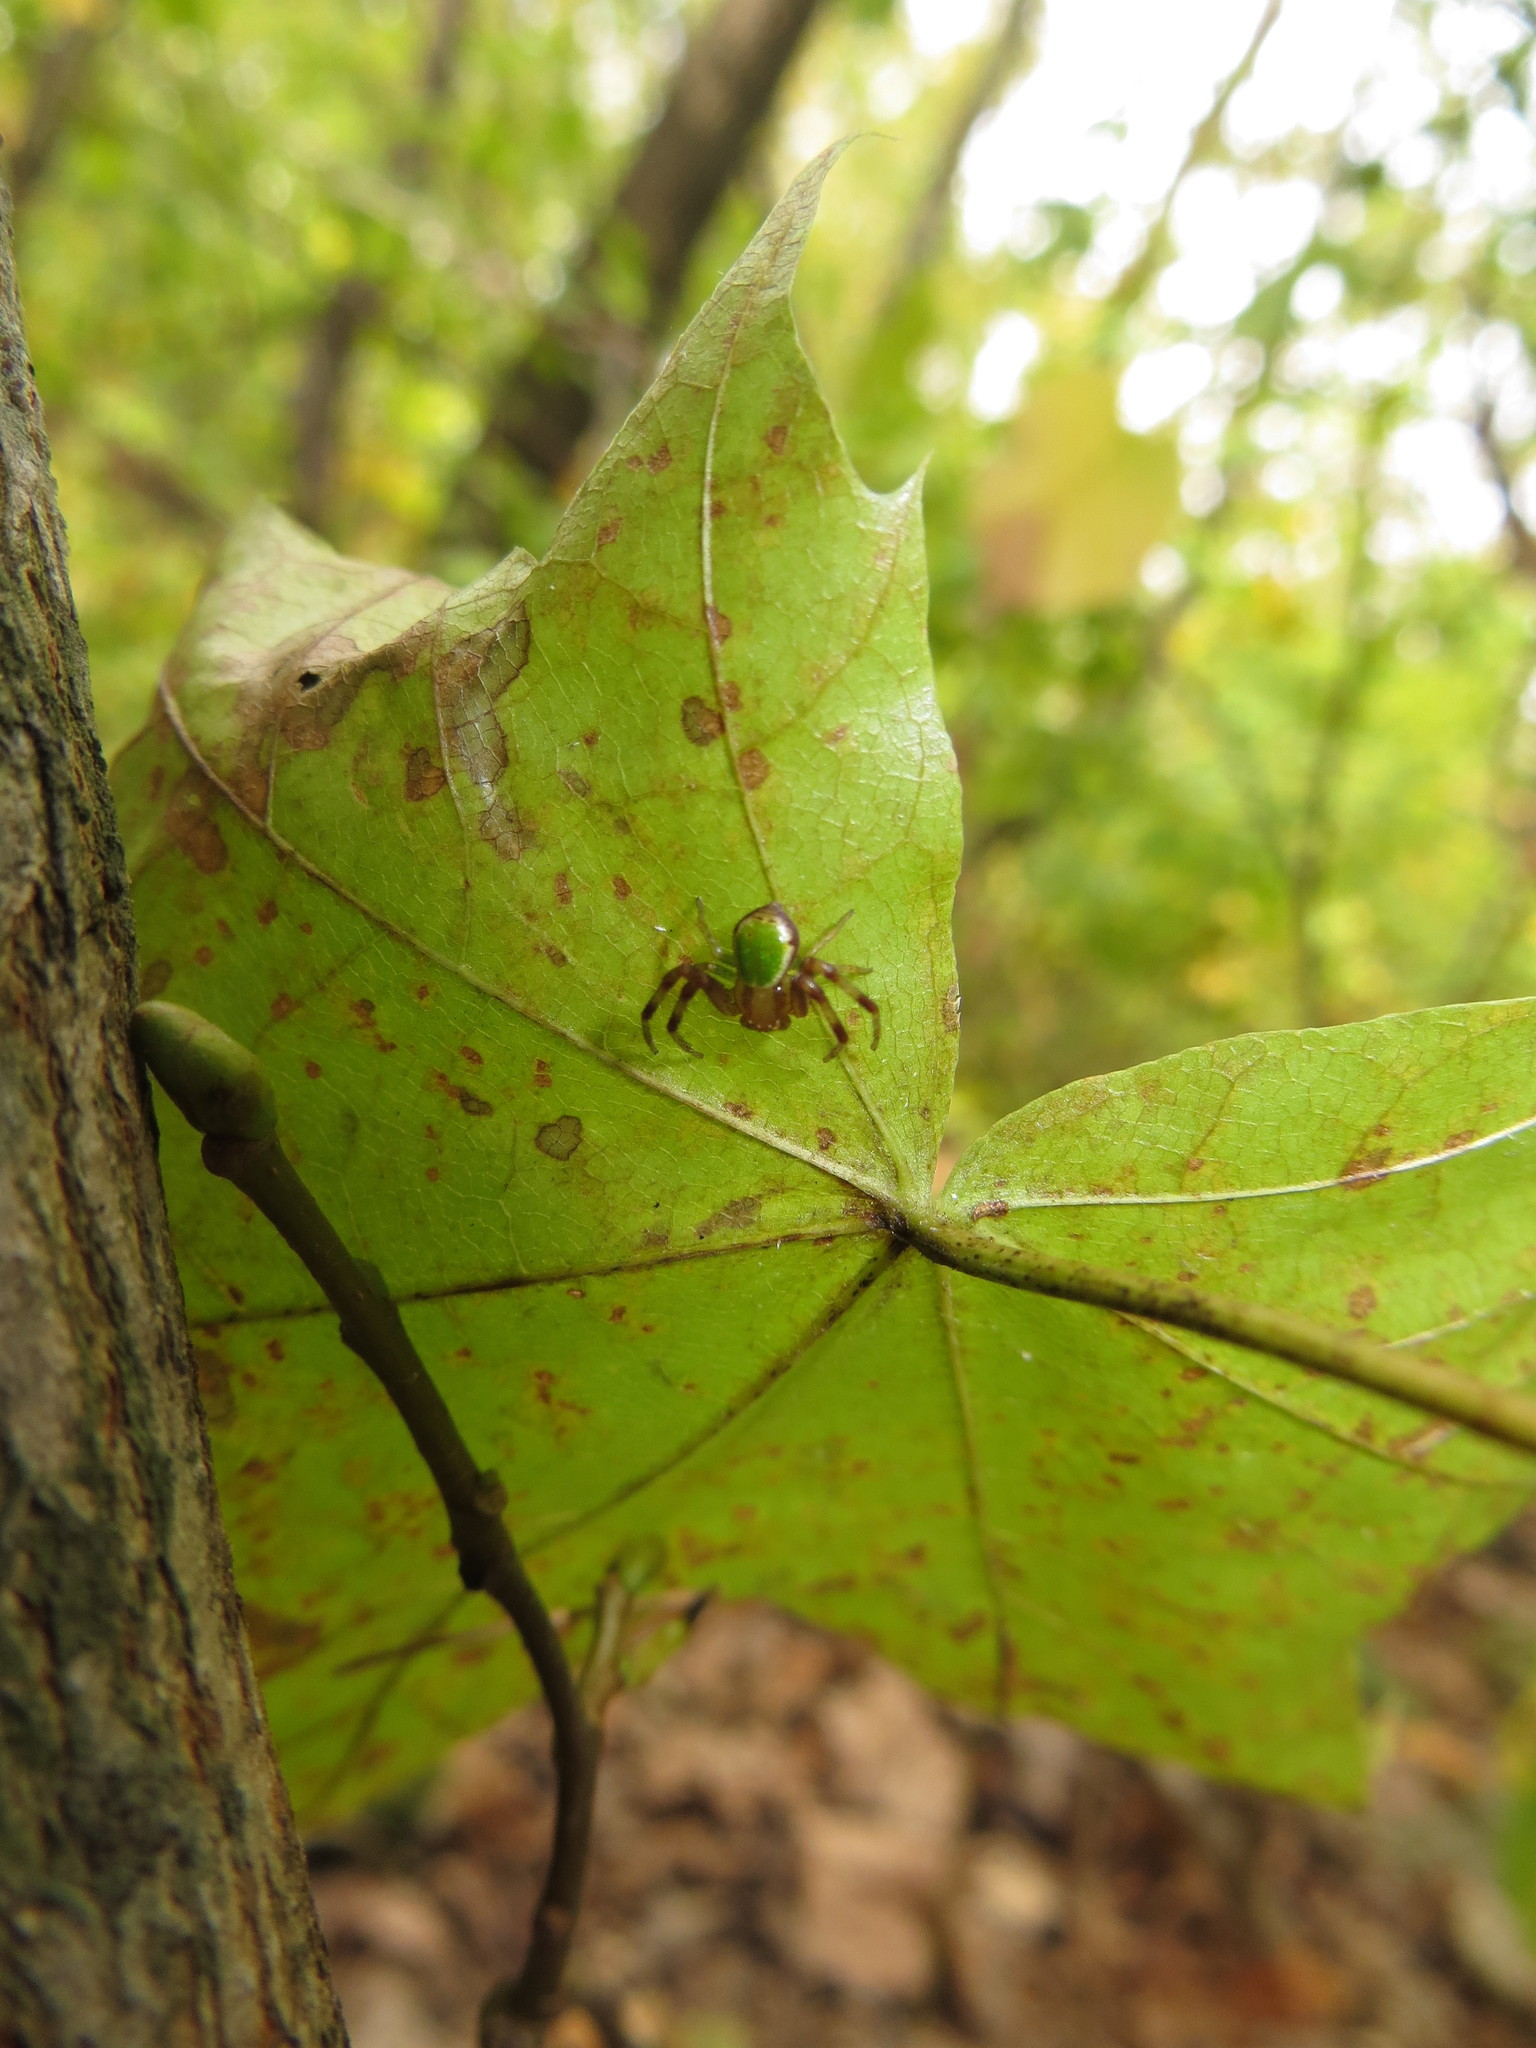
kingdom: Animalia
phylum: Arthropoda
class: Arachnida
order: Araneae
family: Thomisidae
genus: Ebrechtella
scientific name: Ebrechtella tricuspidata
